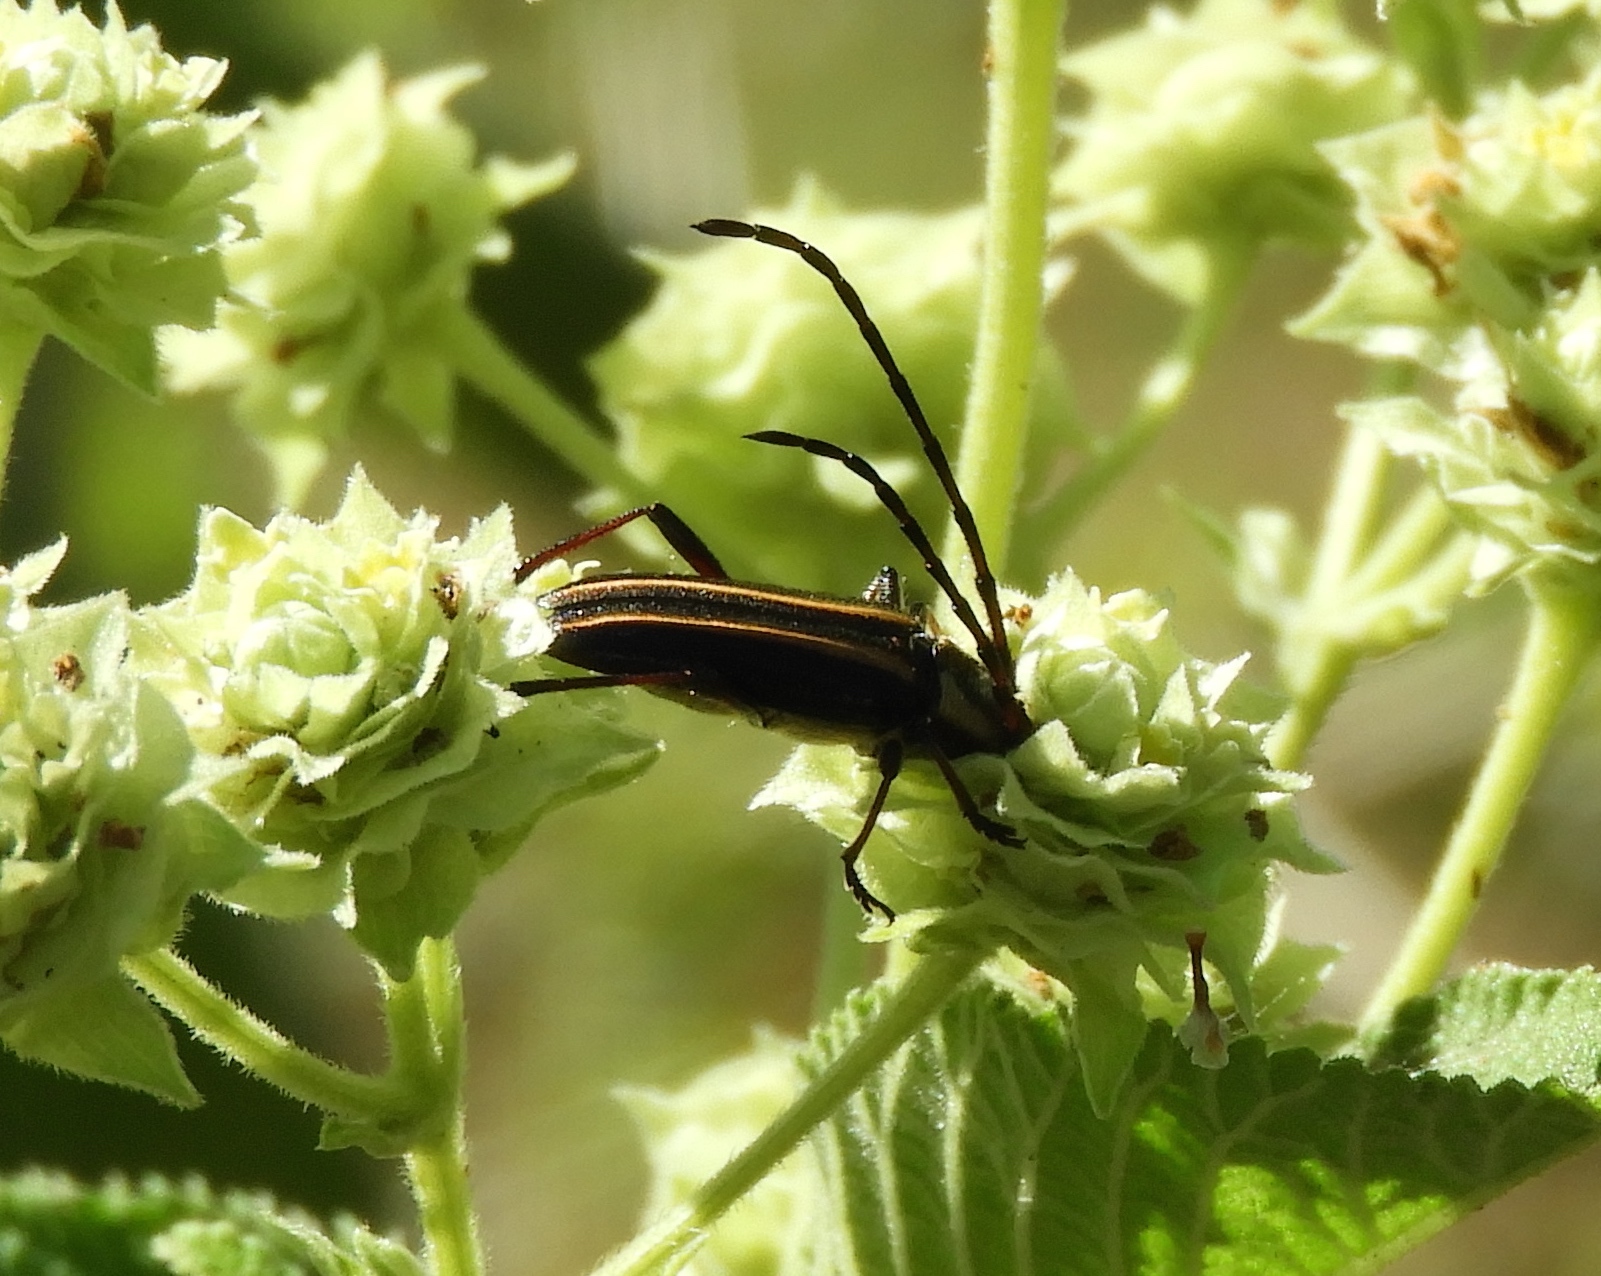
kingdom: Animalia
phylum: Arthropoda
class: Insecta
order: Coleoptera
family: Cerambycidae
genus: Sphaenothecus
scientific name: Sphaenothecus
